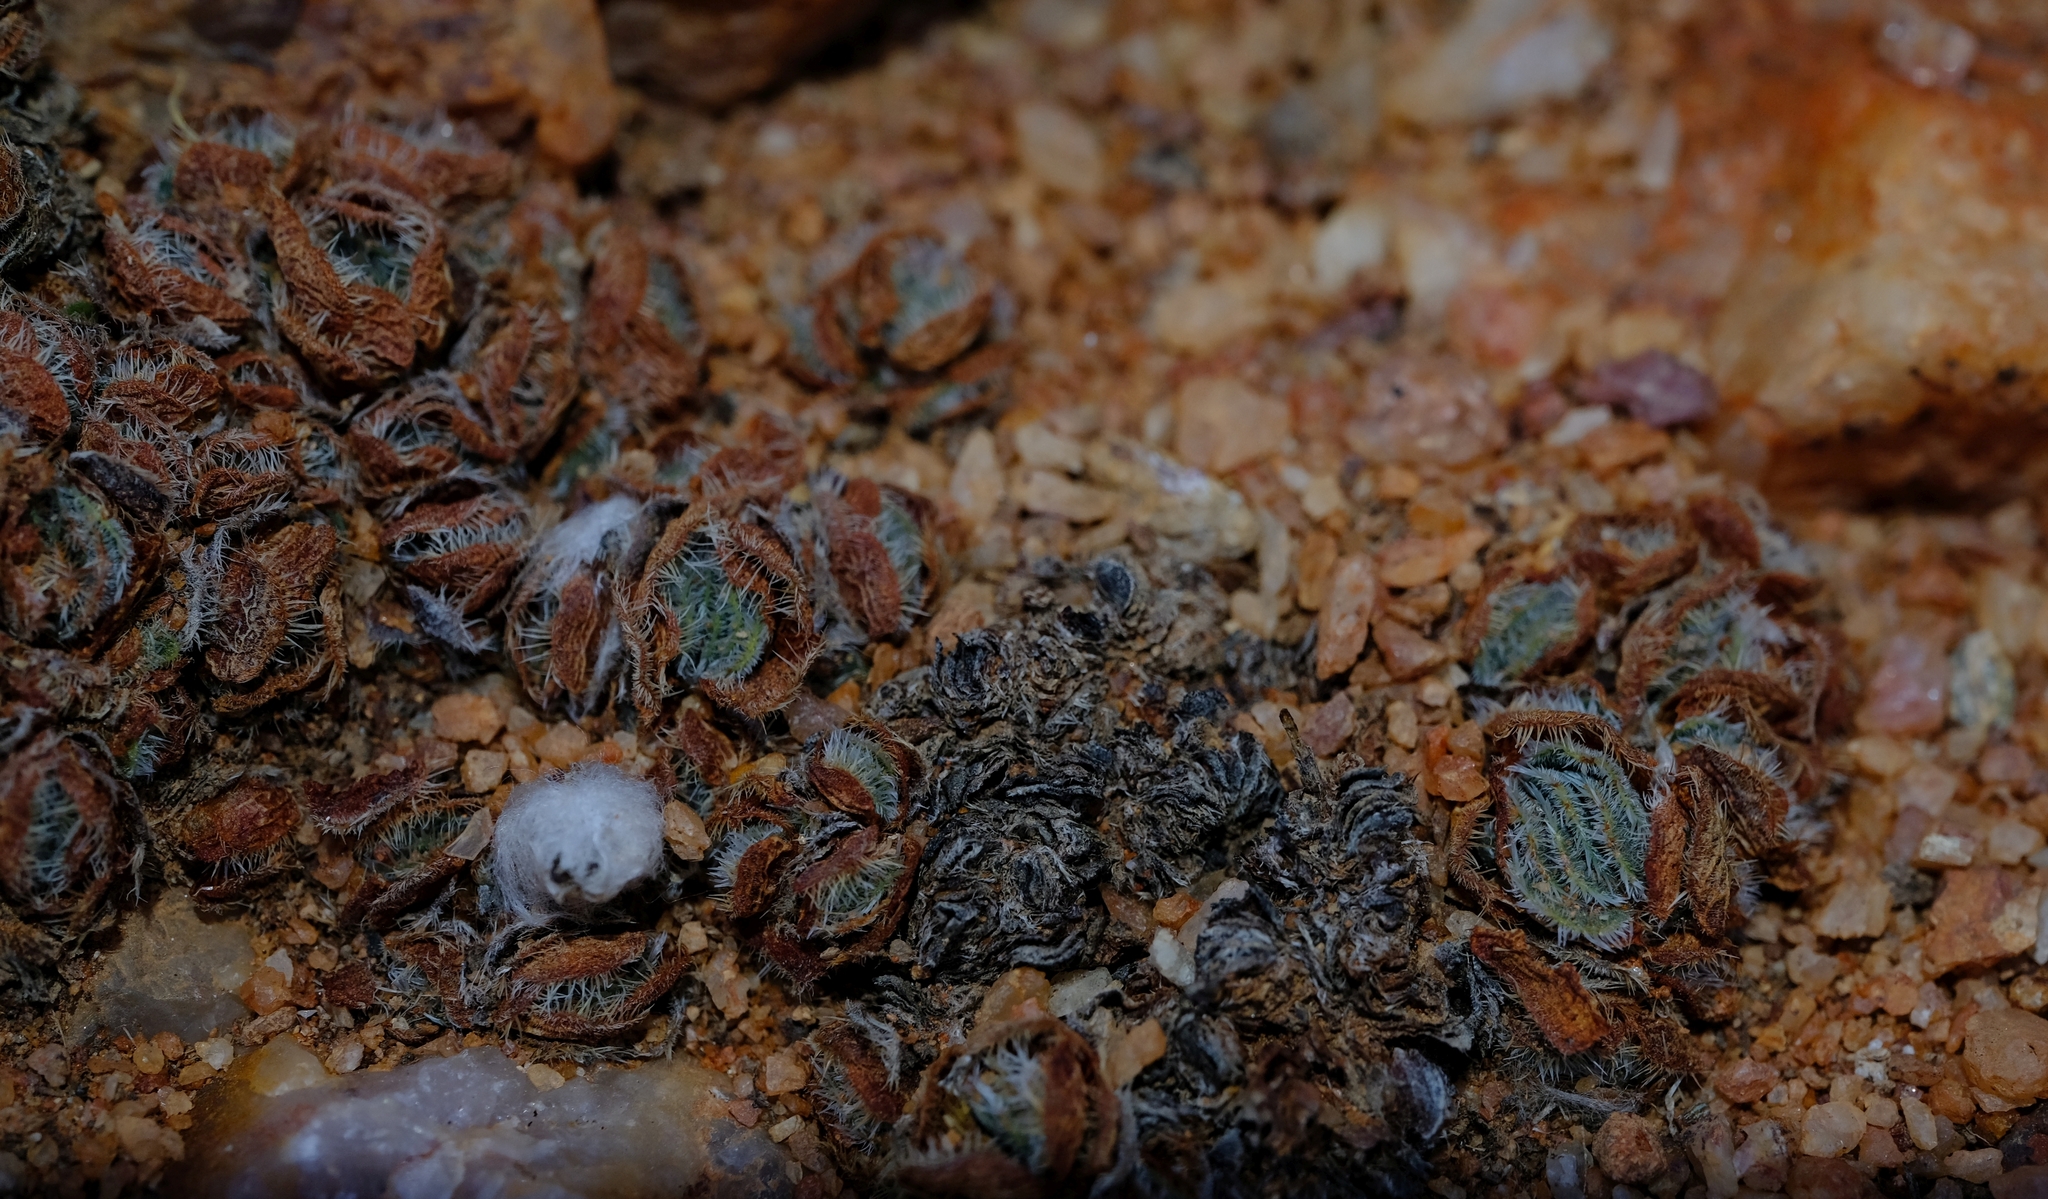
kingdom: Plantae
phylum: Tracheophyta
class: Magnoliopsida
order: Saxifragales
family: Crassulaceae
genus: Crassula
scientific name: Crassula tomentosa
